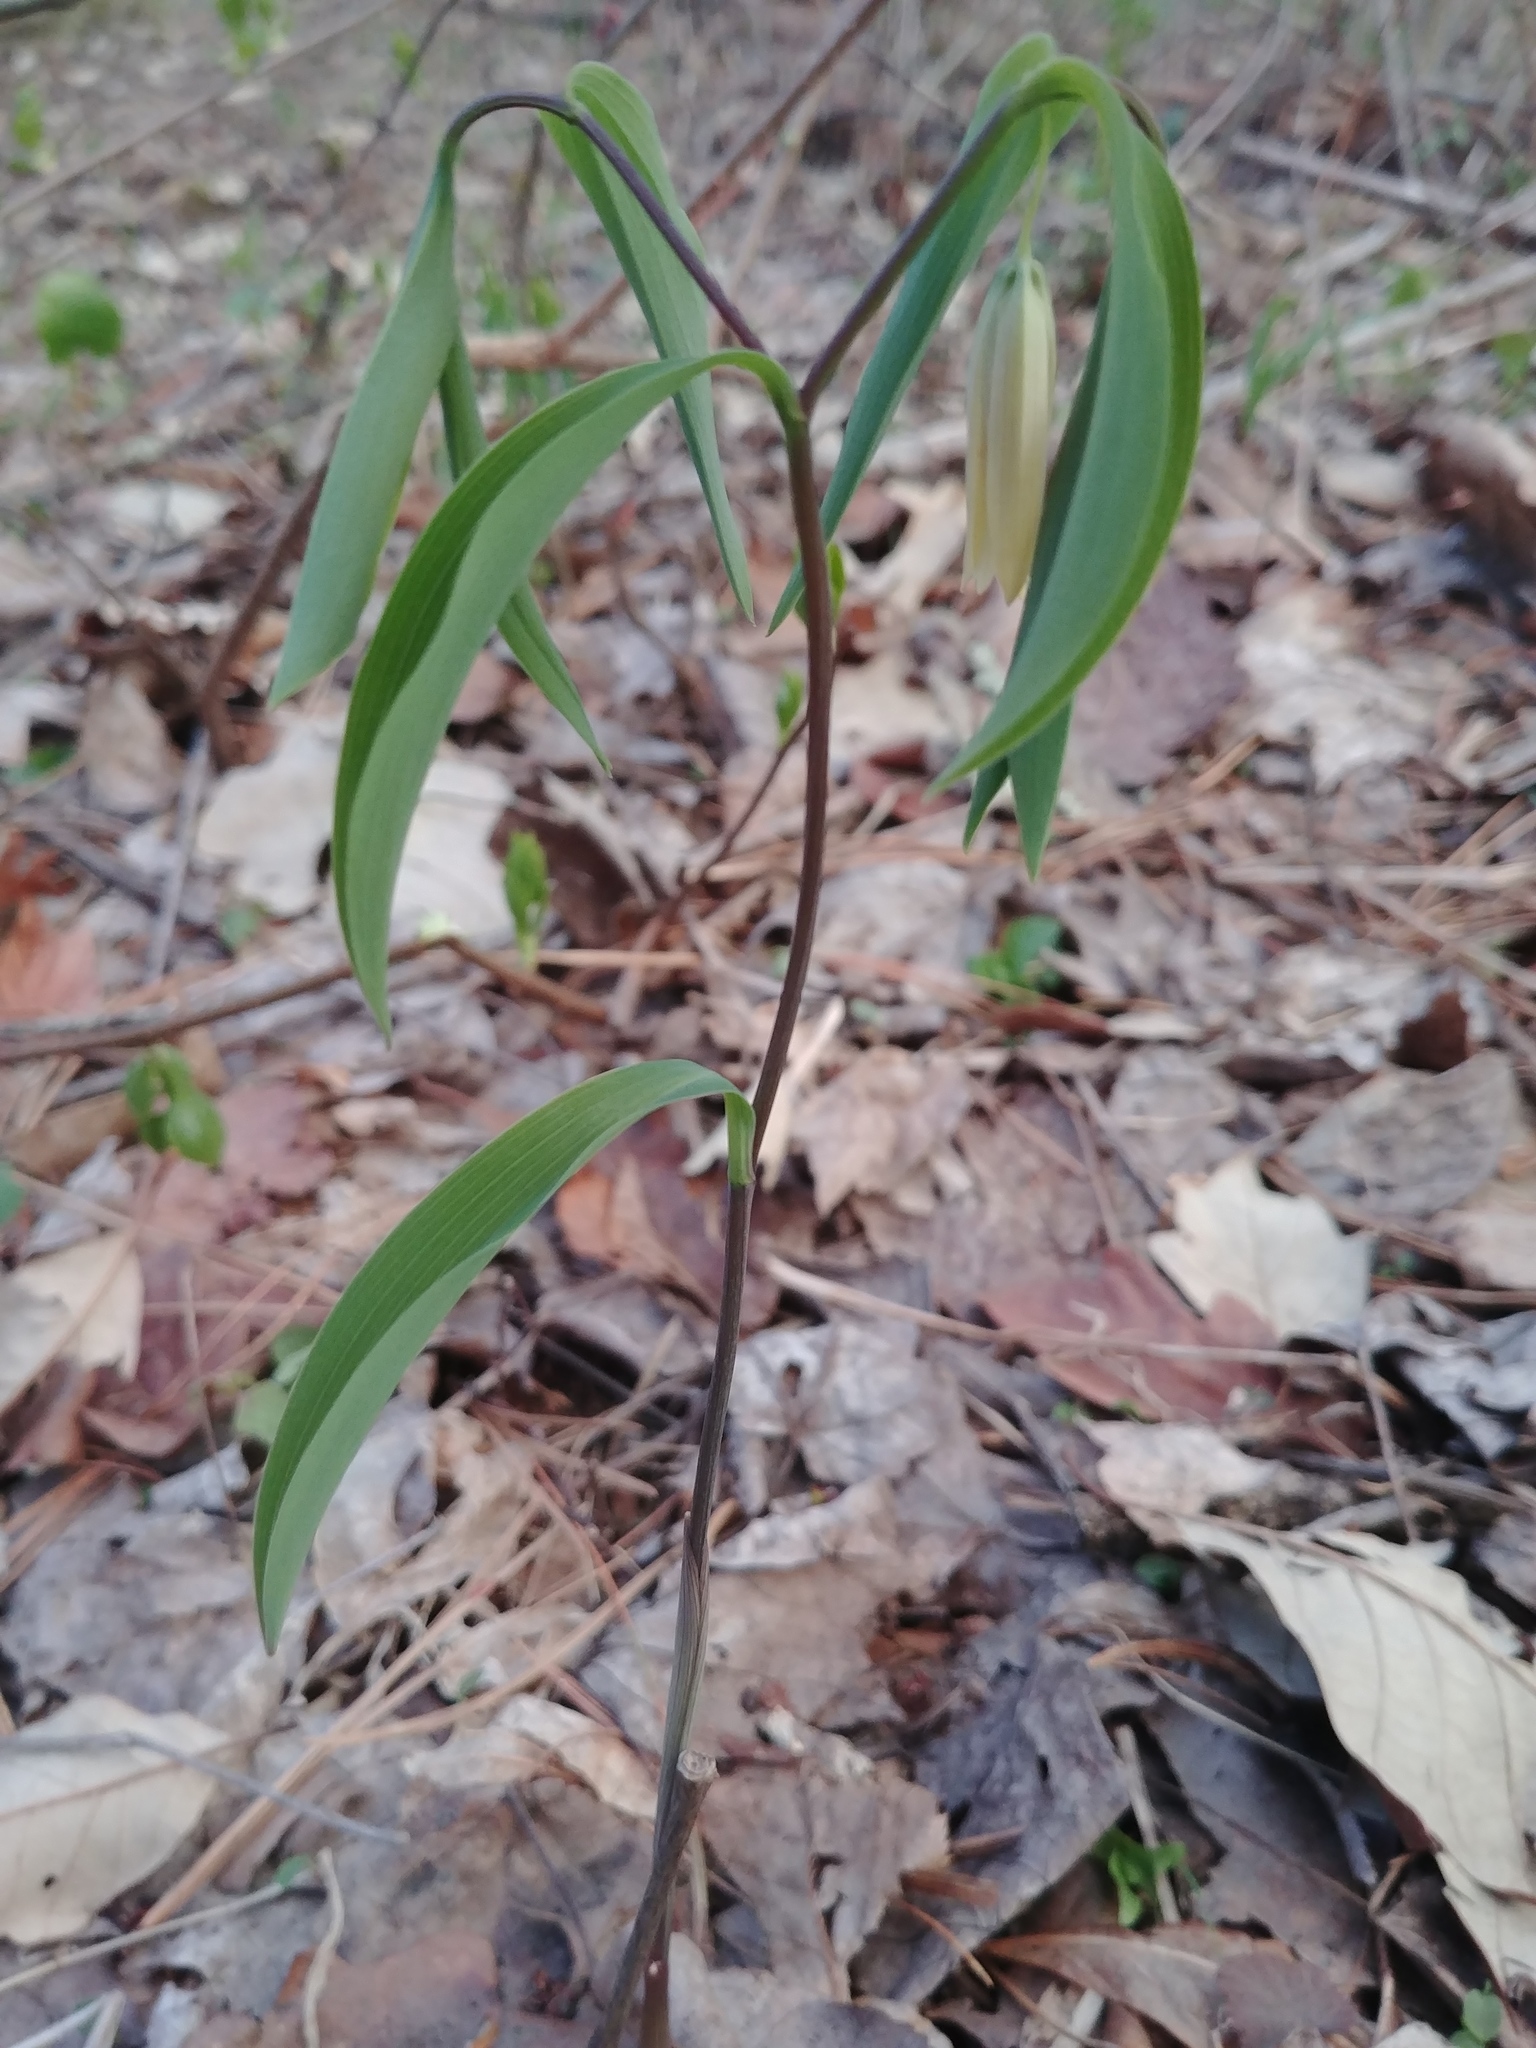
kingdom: Plantae
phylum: Tracheophyta
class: Liliopsida
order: Liliales
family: Colchicaceae
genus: Uvularia
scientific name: Uvularia sessilifolia
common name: Straw-lily
